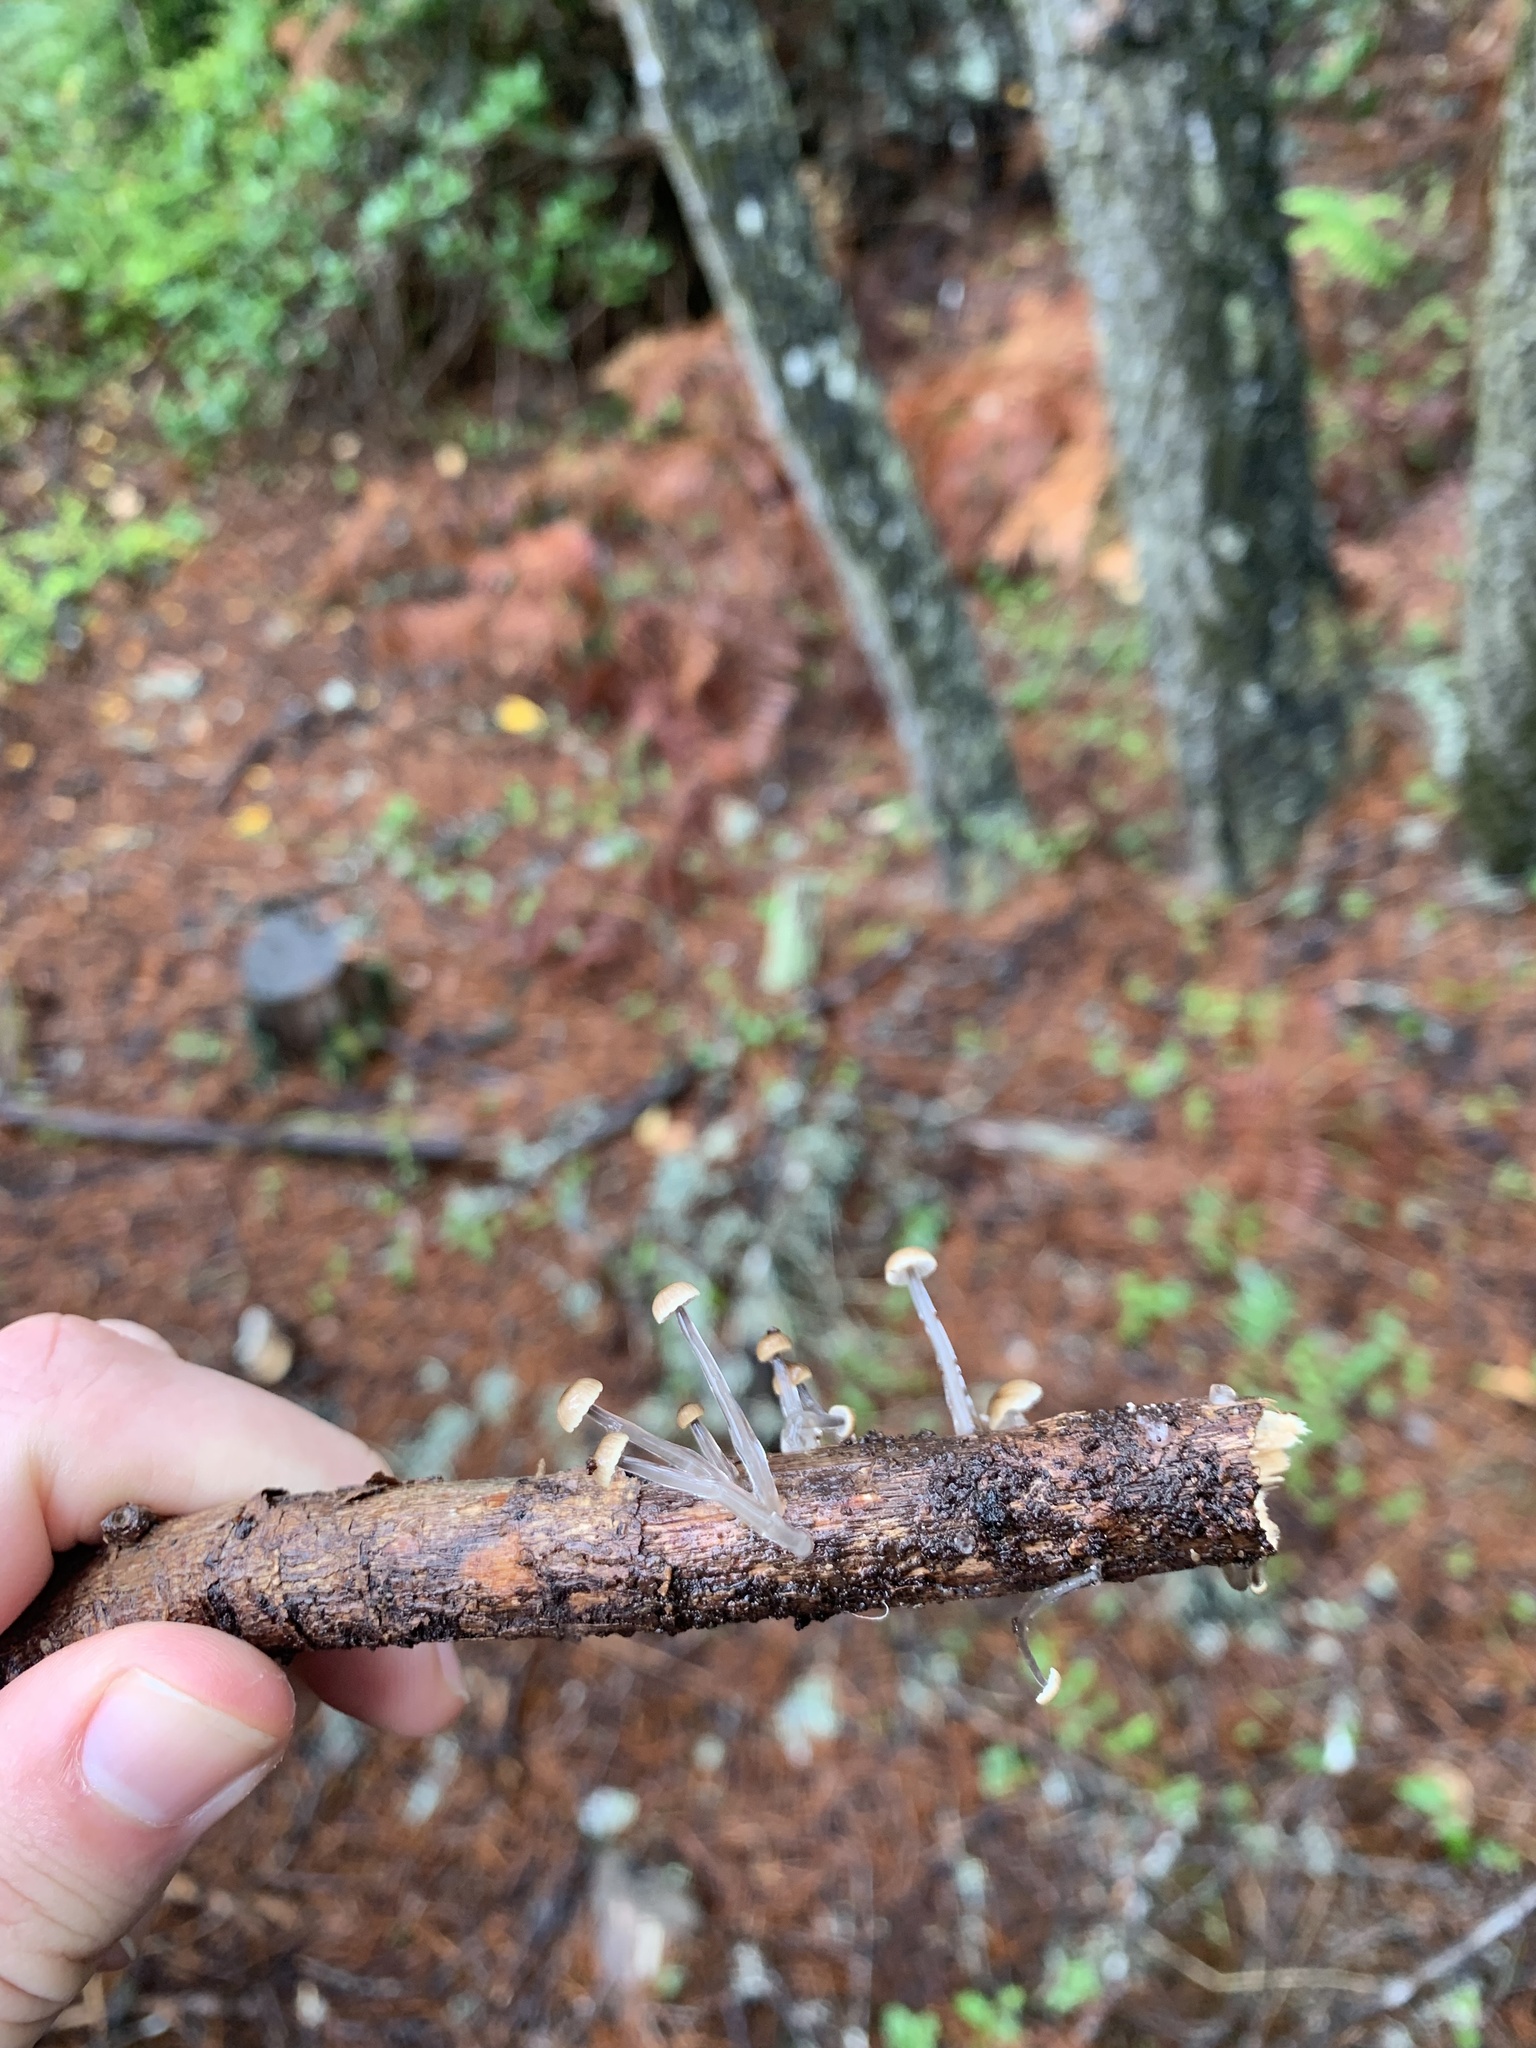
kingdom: Fungi
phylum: Basidiomycota
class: Agaricomycetes
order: Agaricales
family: Mycenaceae
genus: Roridomyces
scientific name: Roridomyces roridus
